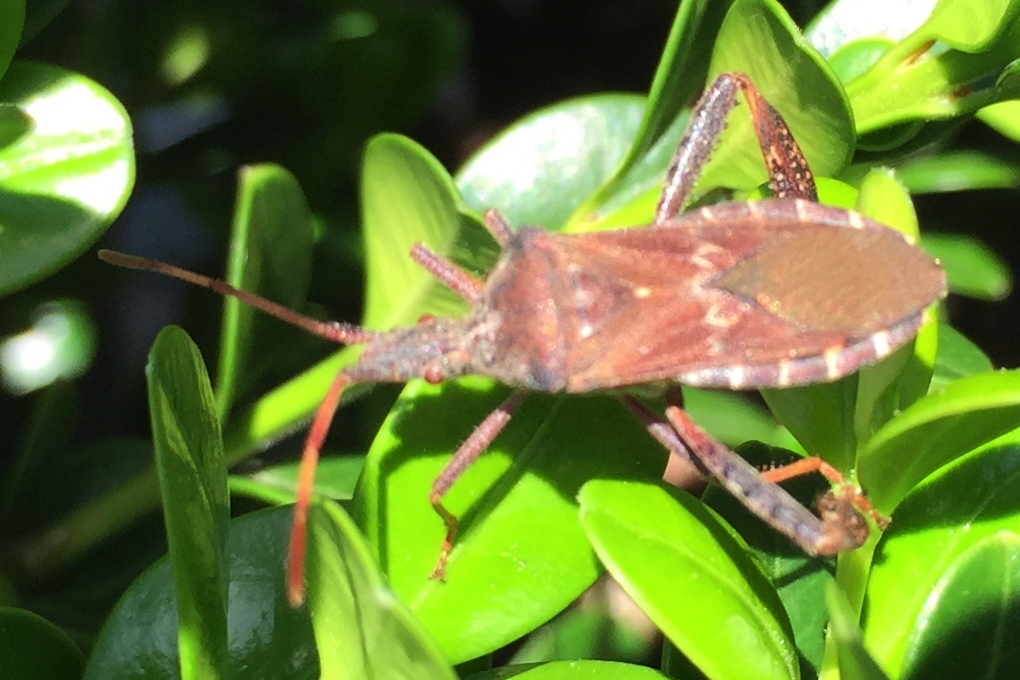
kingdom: Animalia
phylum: Arthropoda
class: Insecta
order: Hemiptera
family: Coreidae
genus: Leptoglossus
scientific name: Leptoglossus corculus
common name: Southern pine seed bug
